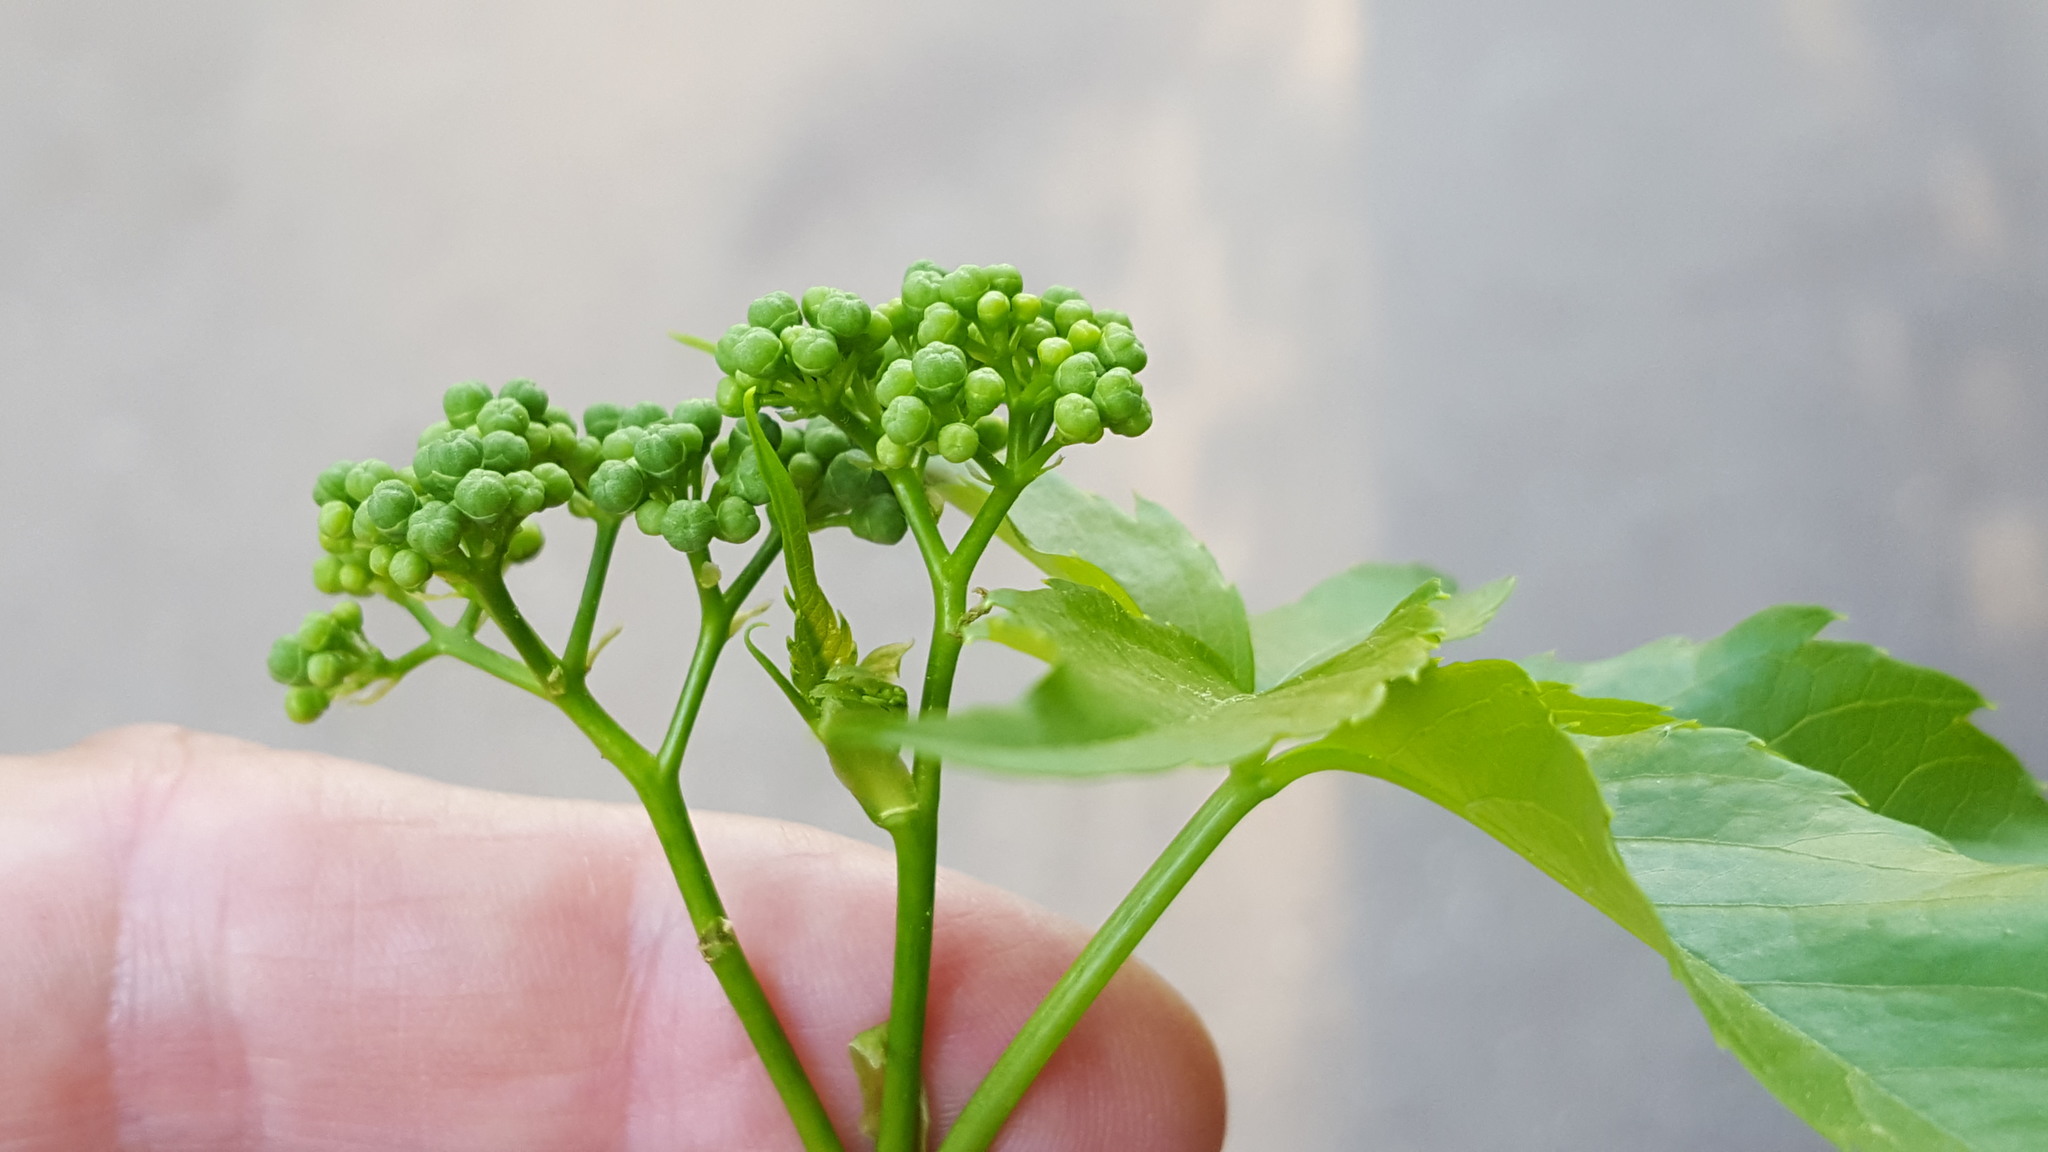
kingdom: Plantae
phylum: Tracheophyta
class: Magnoliopsida
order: Vitales
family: Vitaceae
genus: Parthenocissus
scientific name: Parthenocissus inserta
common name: False virginia-creeper
